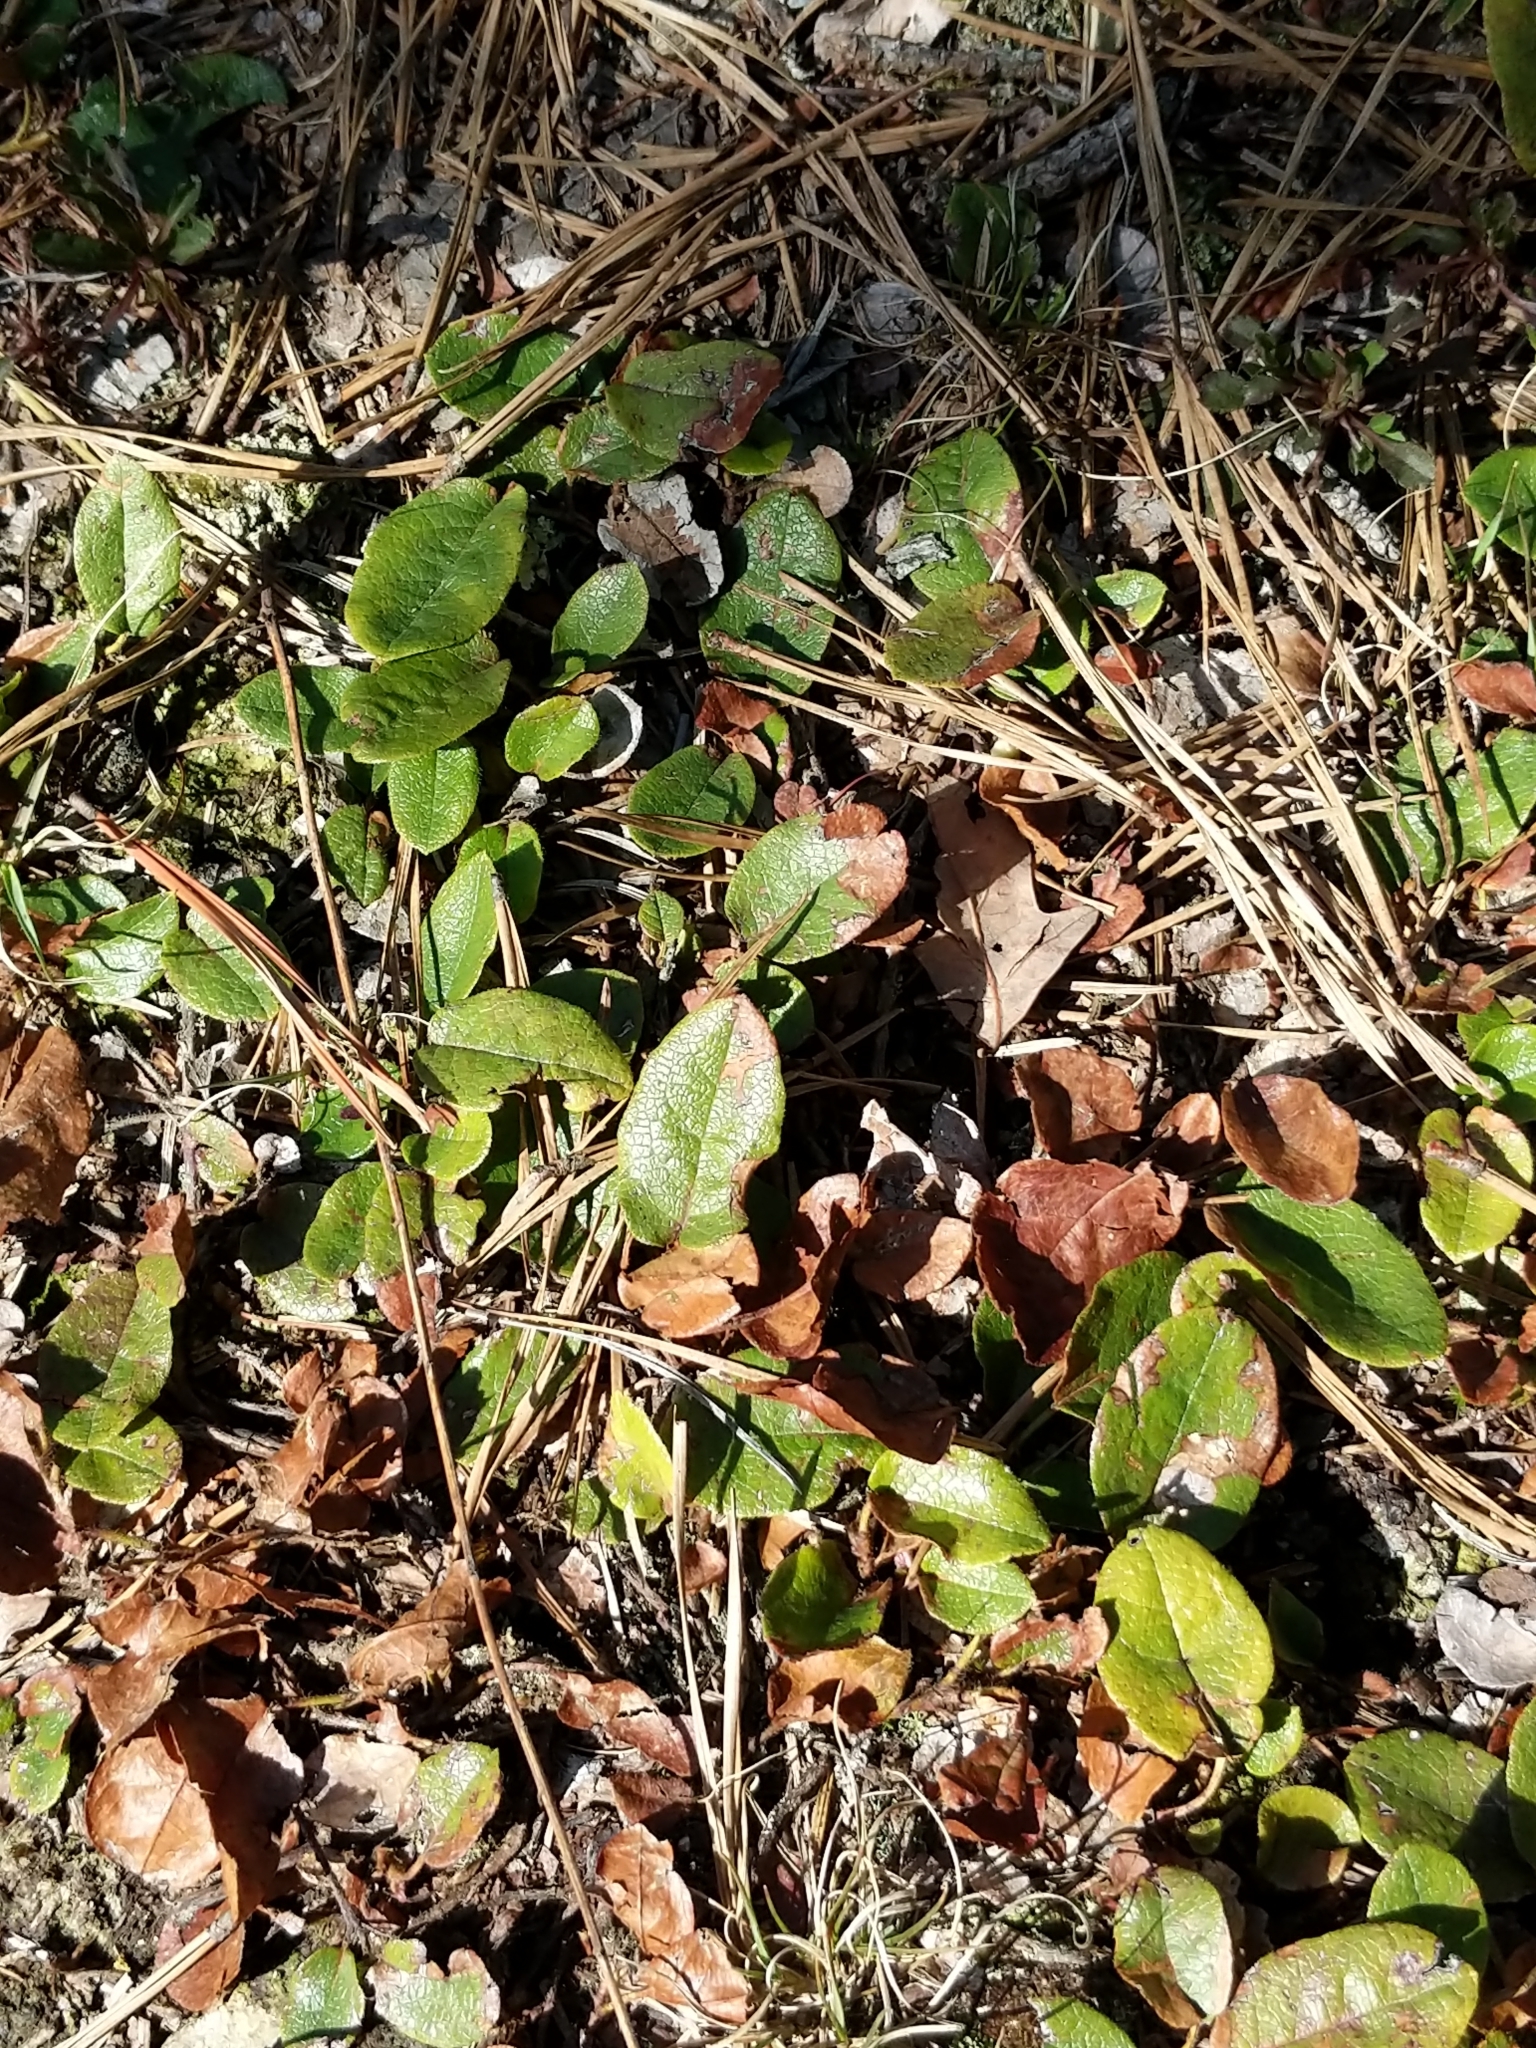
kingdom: Plantae
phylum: Tracheophyta
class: Magnoliopsida
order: Ericales
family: Ericaceae
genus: Epigaea
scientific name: Epigaea repens
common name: Gravelroot
